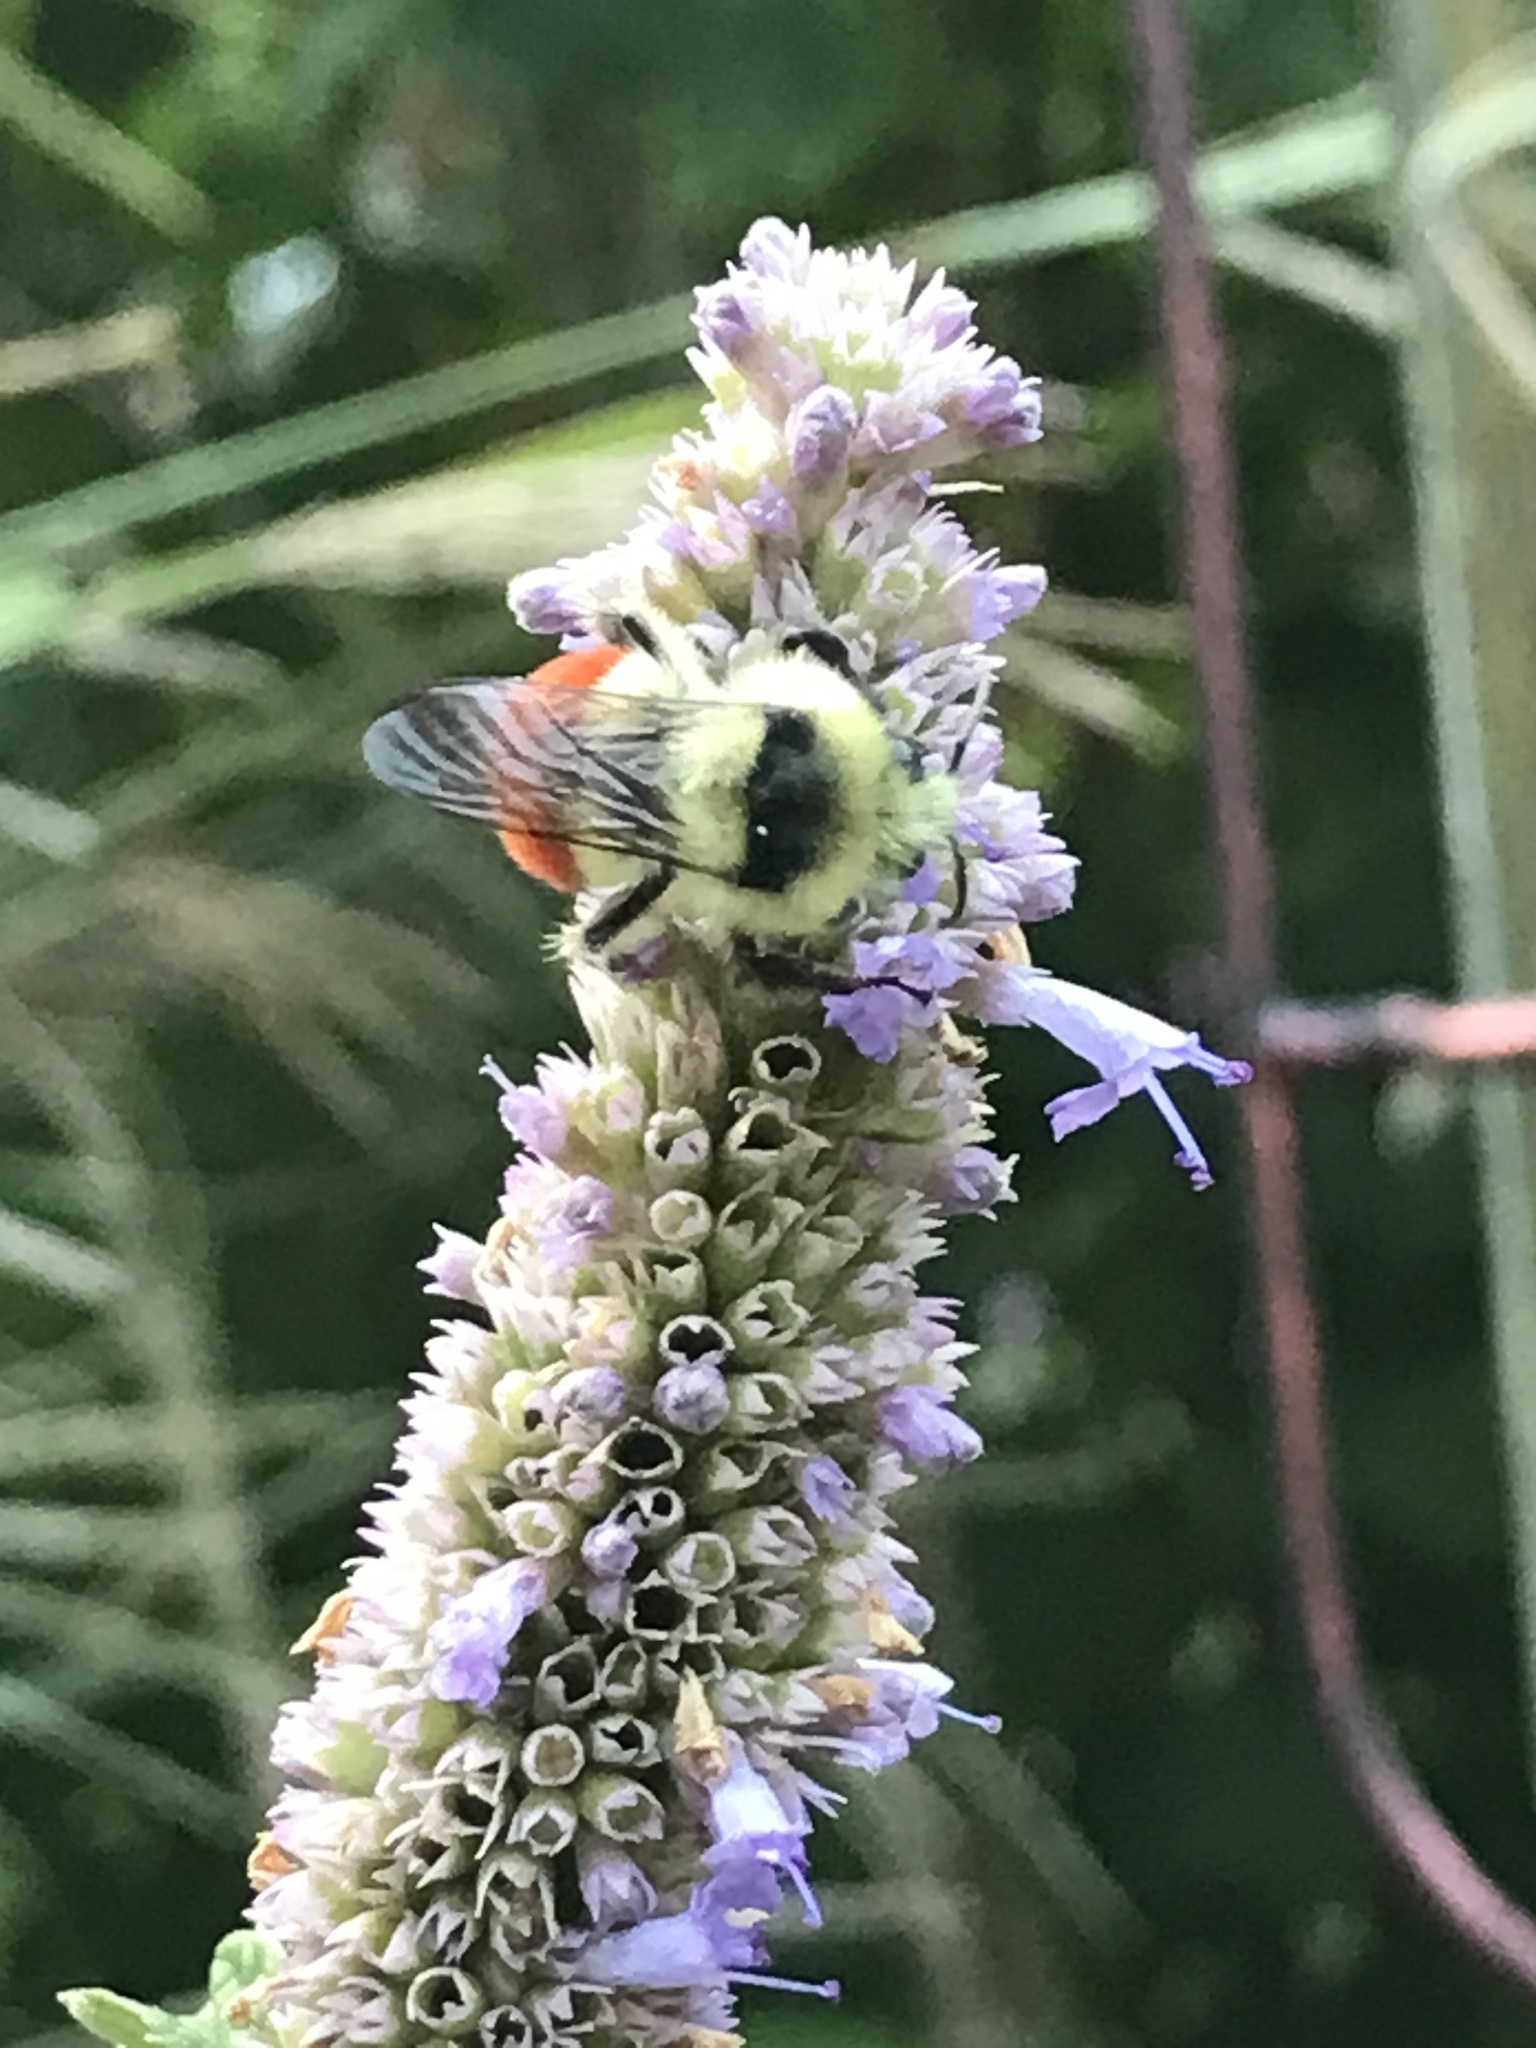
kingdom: Animalia
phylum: Arthropoda
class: Insecta
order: Hymenoptera
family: Apidae
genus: Bombus
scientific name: Bombus ternarius
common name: Tri-colored bumble bee
